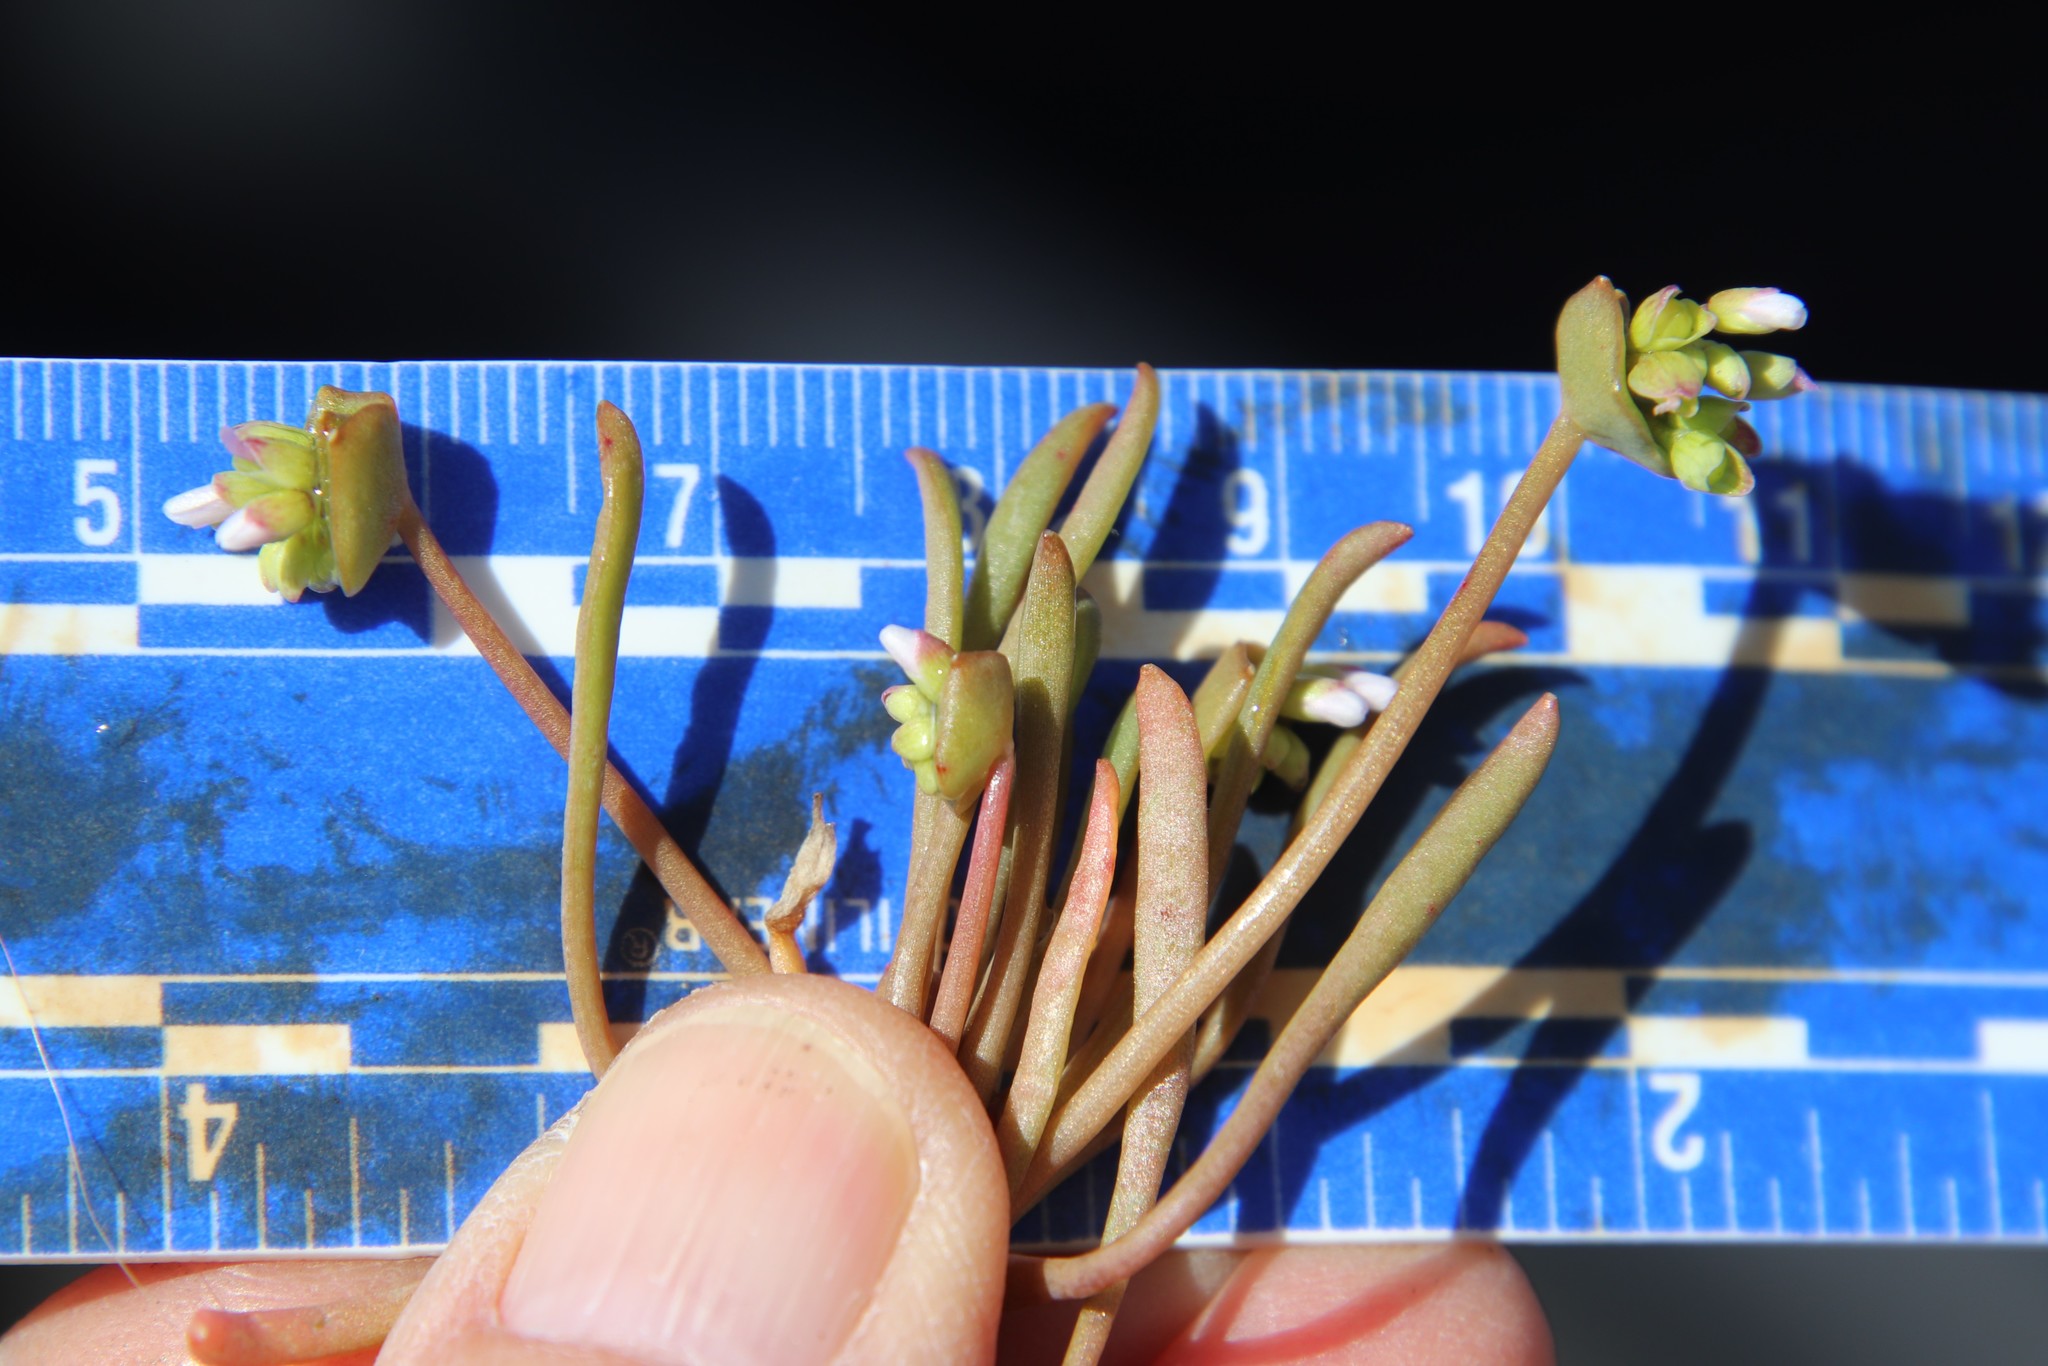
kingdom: Plantae
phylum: Tracheophyta
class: Magnoliopsida
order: Caryophyllales
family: Montiaceae
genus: Claytonia
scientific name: Claytonia parviflora
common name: Indian-lettuce
